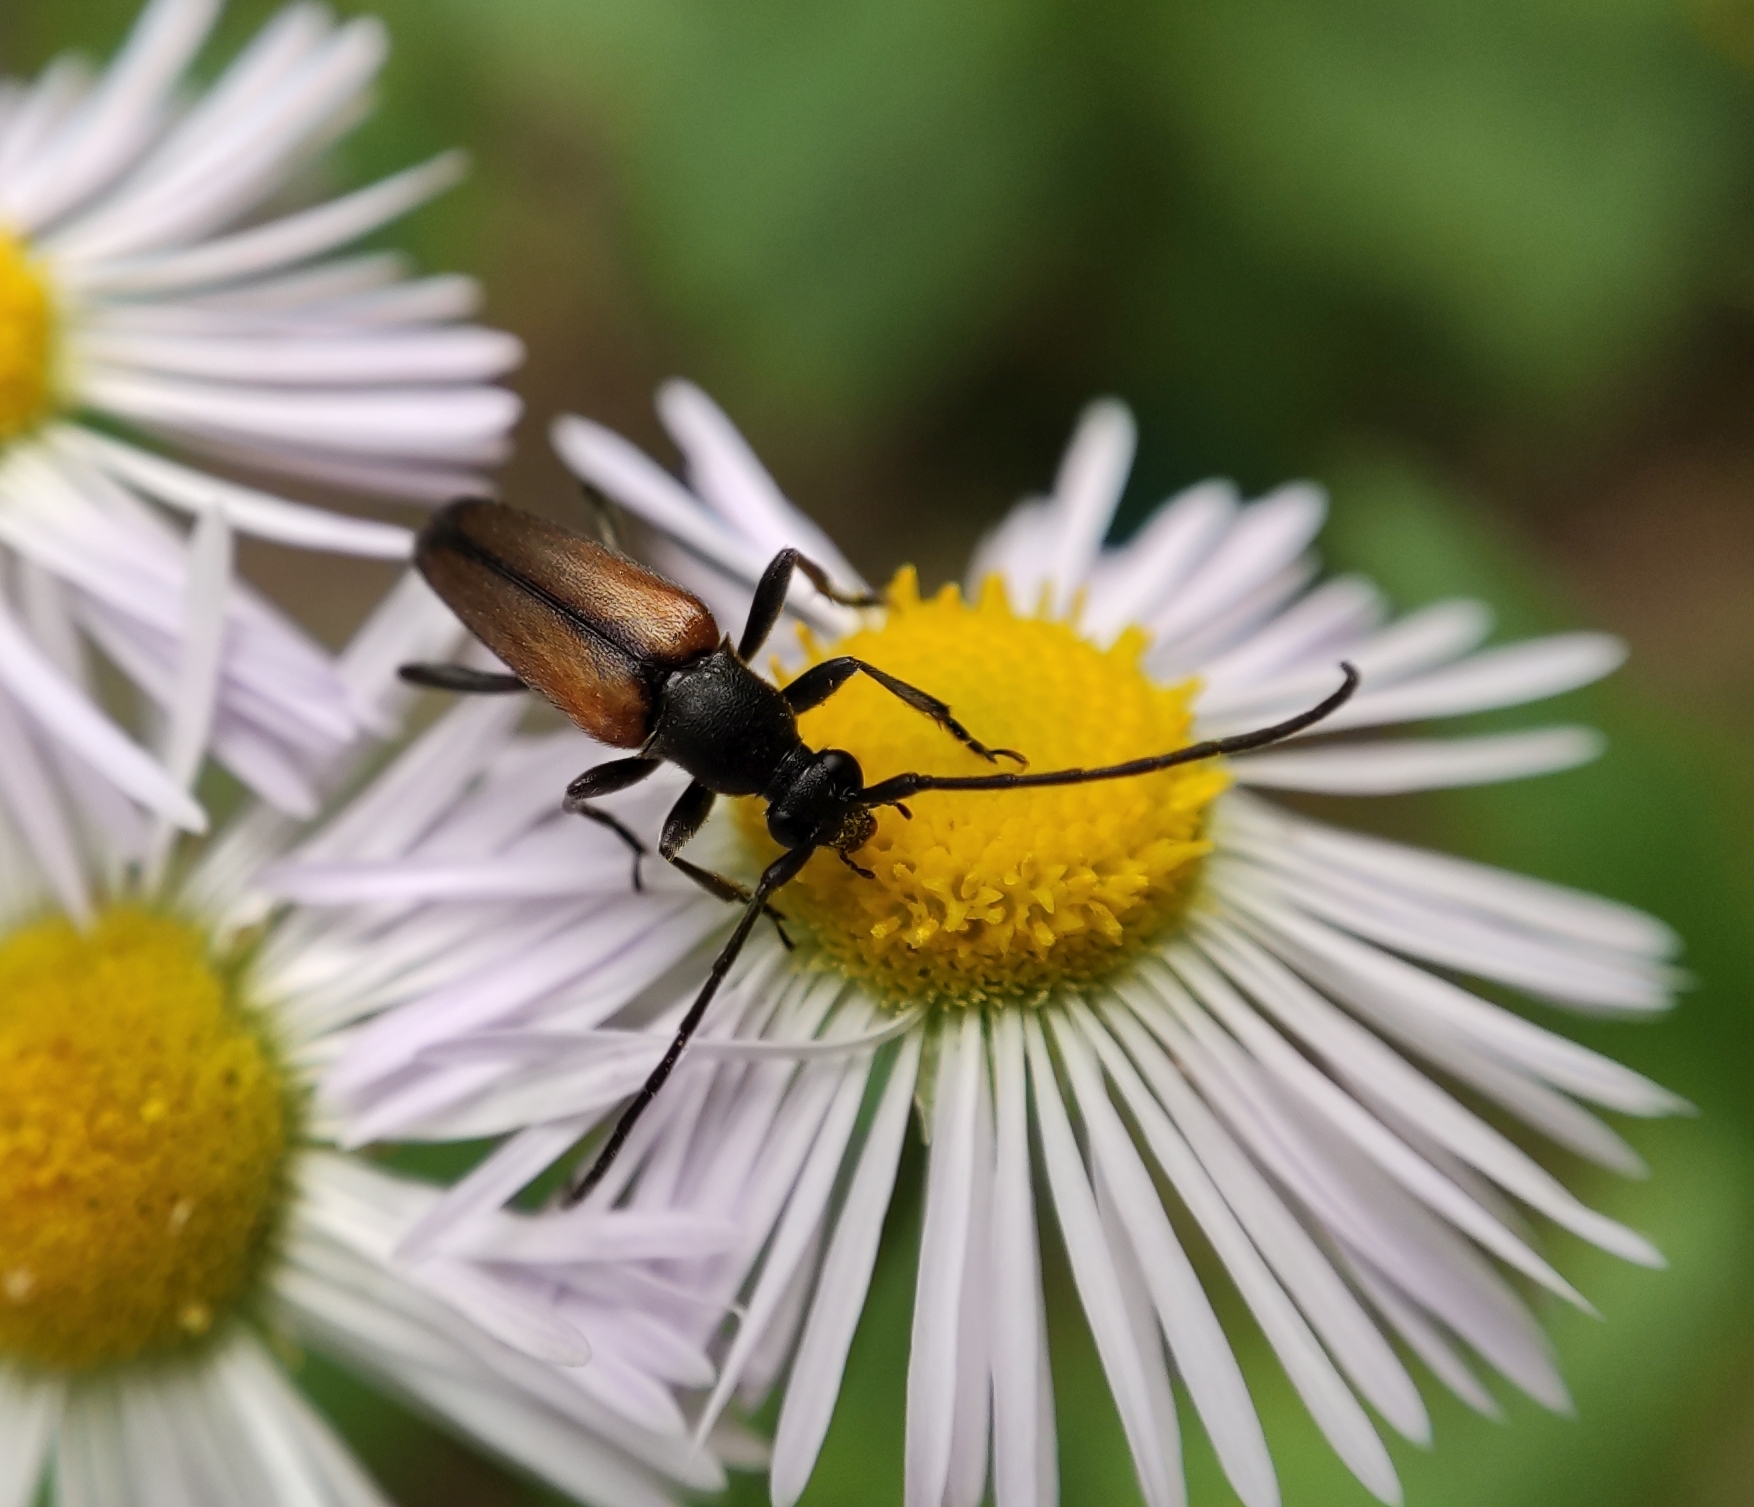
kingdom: Animalia
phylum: Arthropoda
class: Insecta
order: Coleoptera
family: Cerambycidae
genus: Stenurella
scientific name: Stenurella melanura
